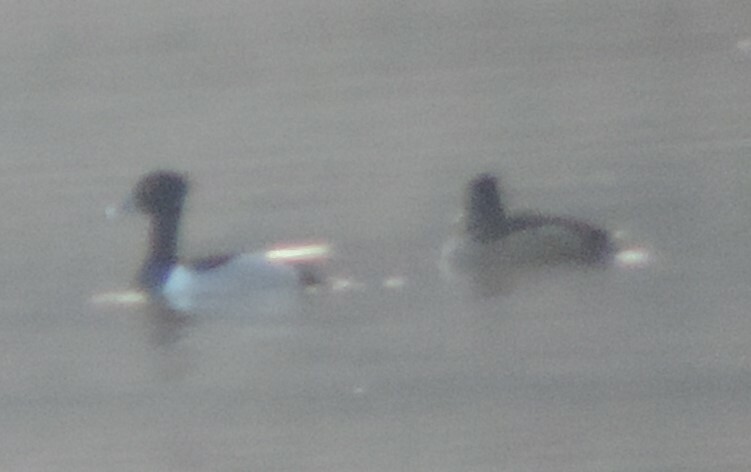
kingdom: Animalia
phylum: Chordata
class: Aves
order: Anseriformes
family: Anatidae
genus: Aythya
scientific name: Aythya collaris
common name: Ring-necked duck
